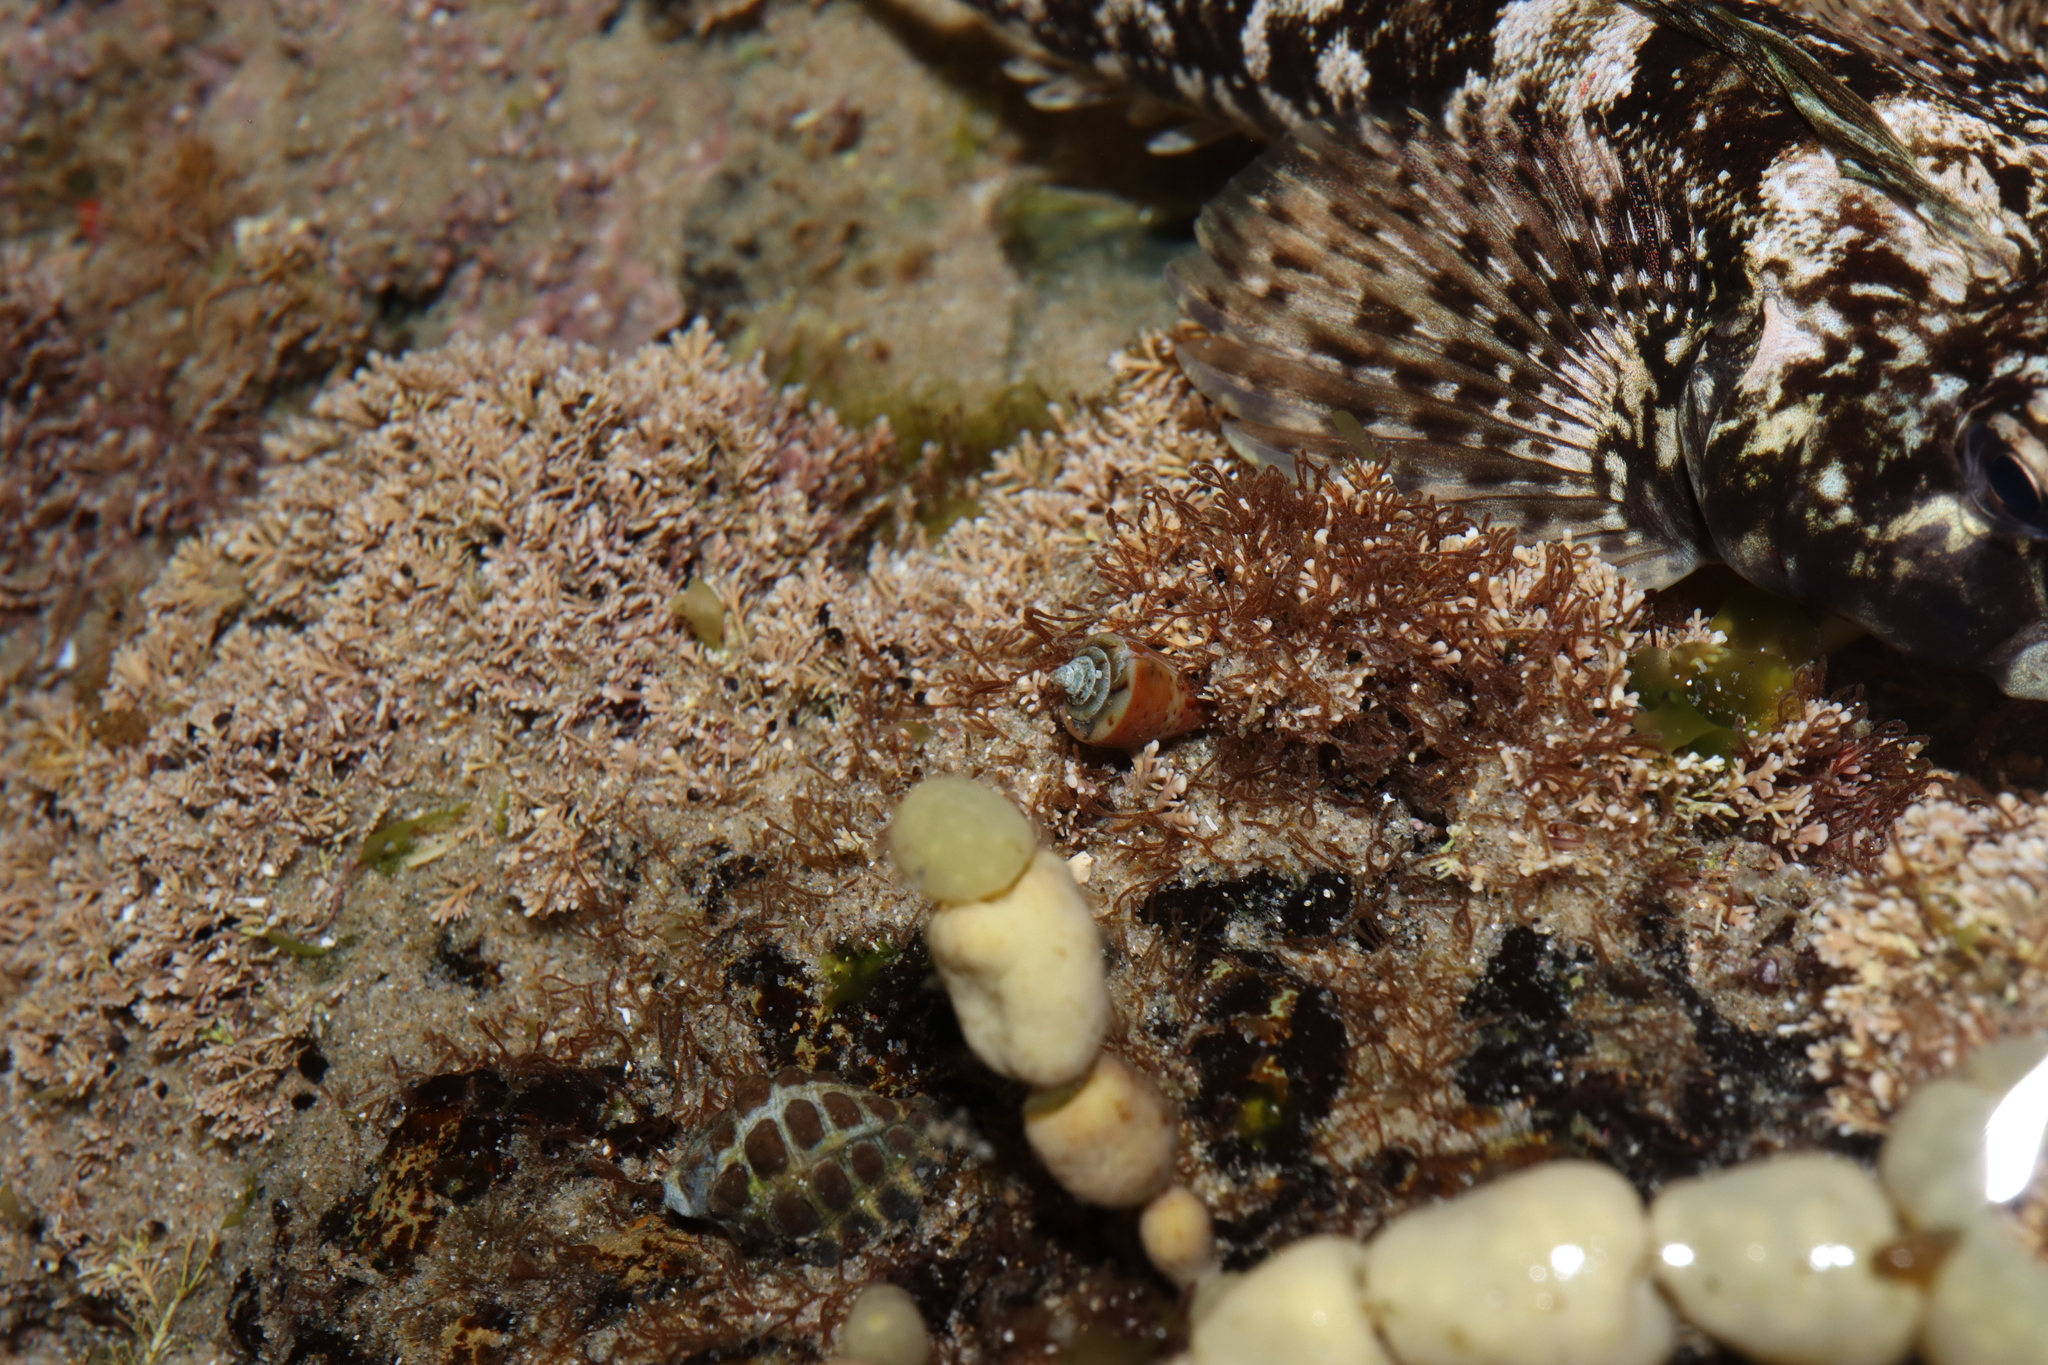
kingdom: Animalia
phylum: Mollusca
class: Gastropoda
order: Neogastropoda
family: Conidae
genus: Conus
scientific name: Conus aplustre
